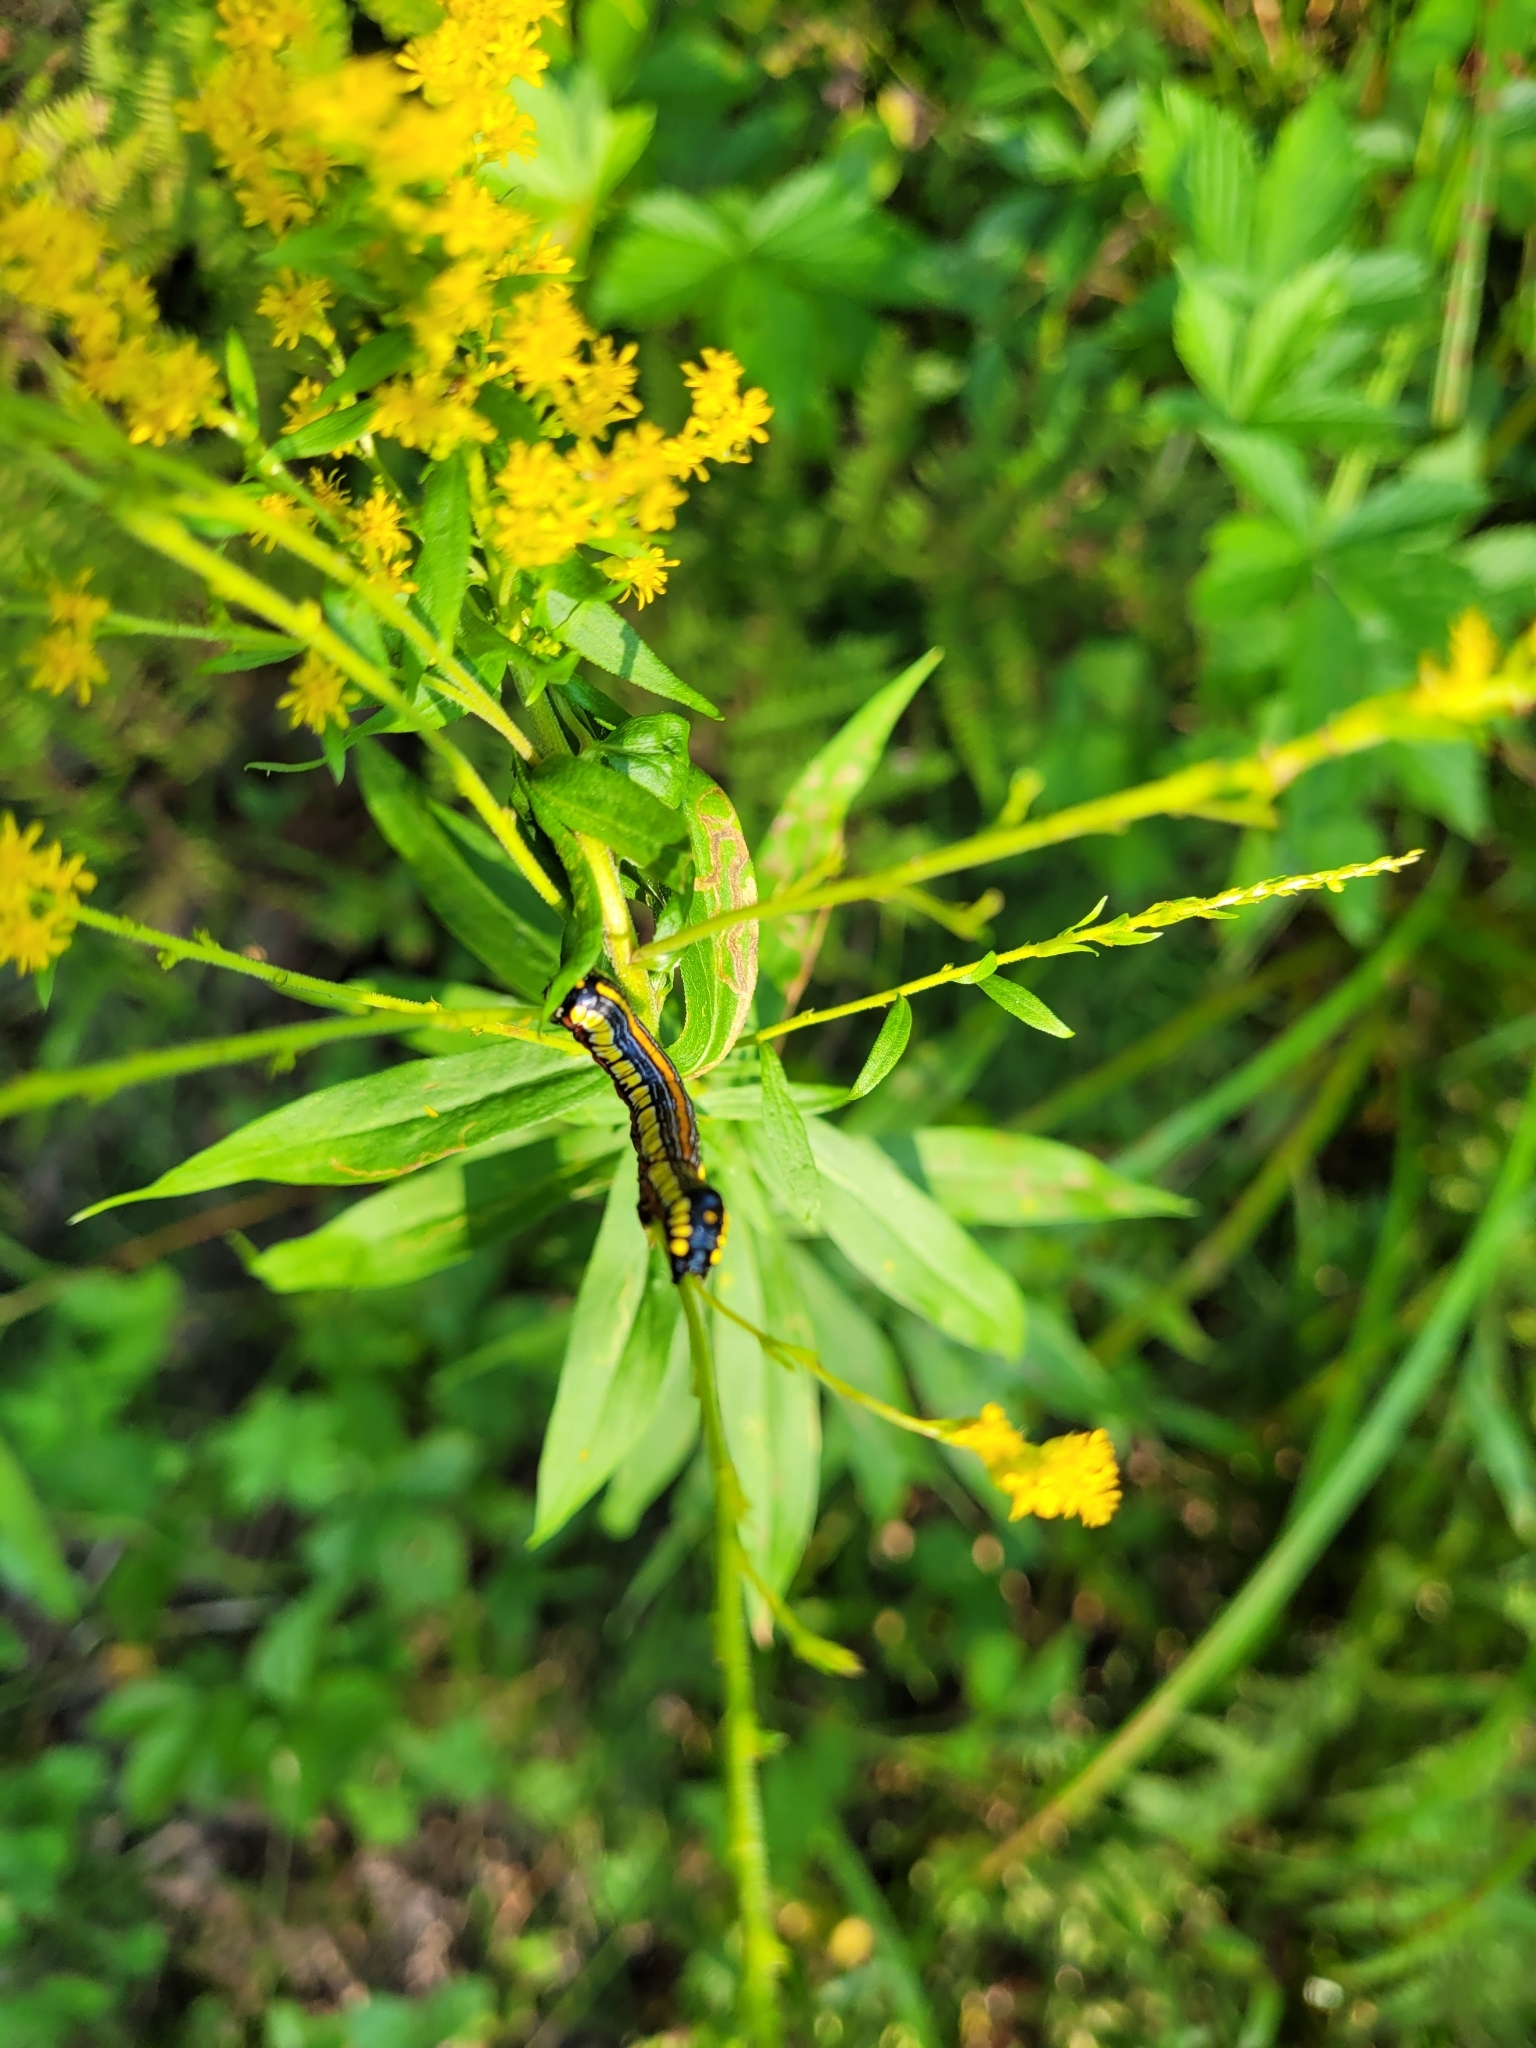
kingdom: Animalia
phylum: Arthropoda
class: Insecta
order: Lepidoptera
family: Noctuidae
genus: Cucullia
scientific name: Cucullia convexipennis
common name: Brown-hooded owlet
